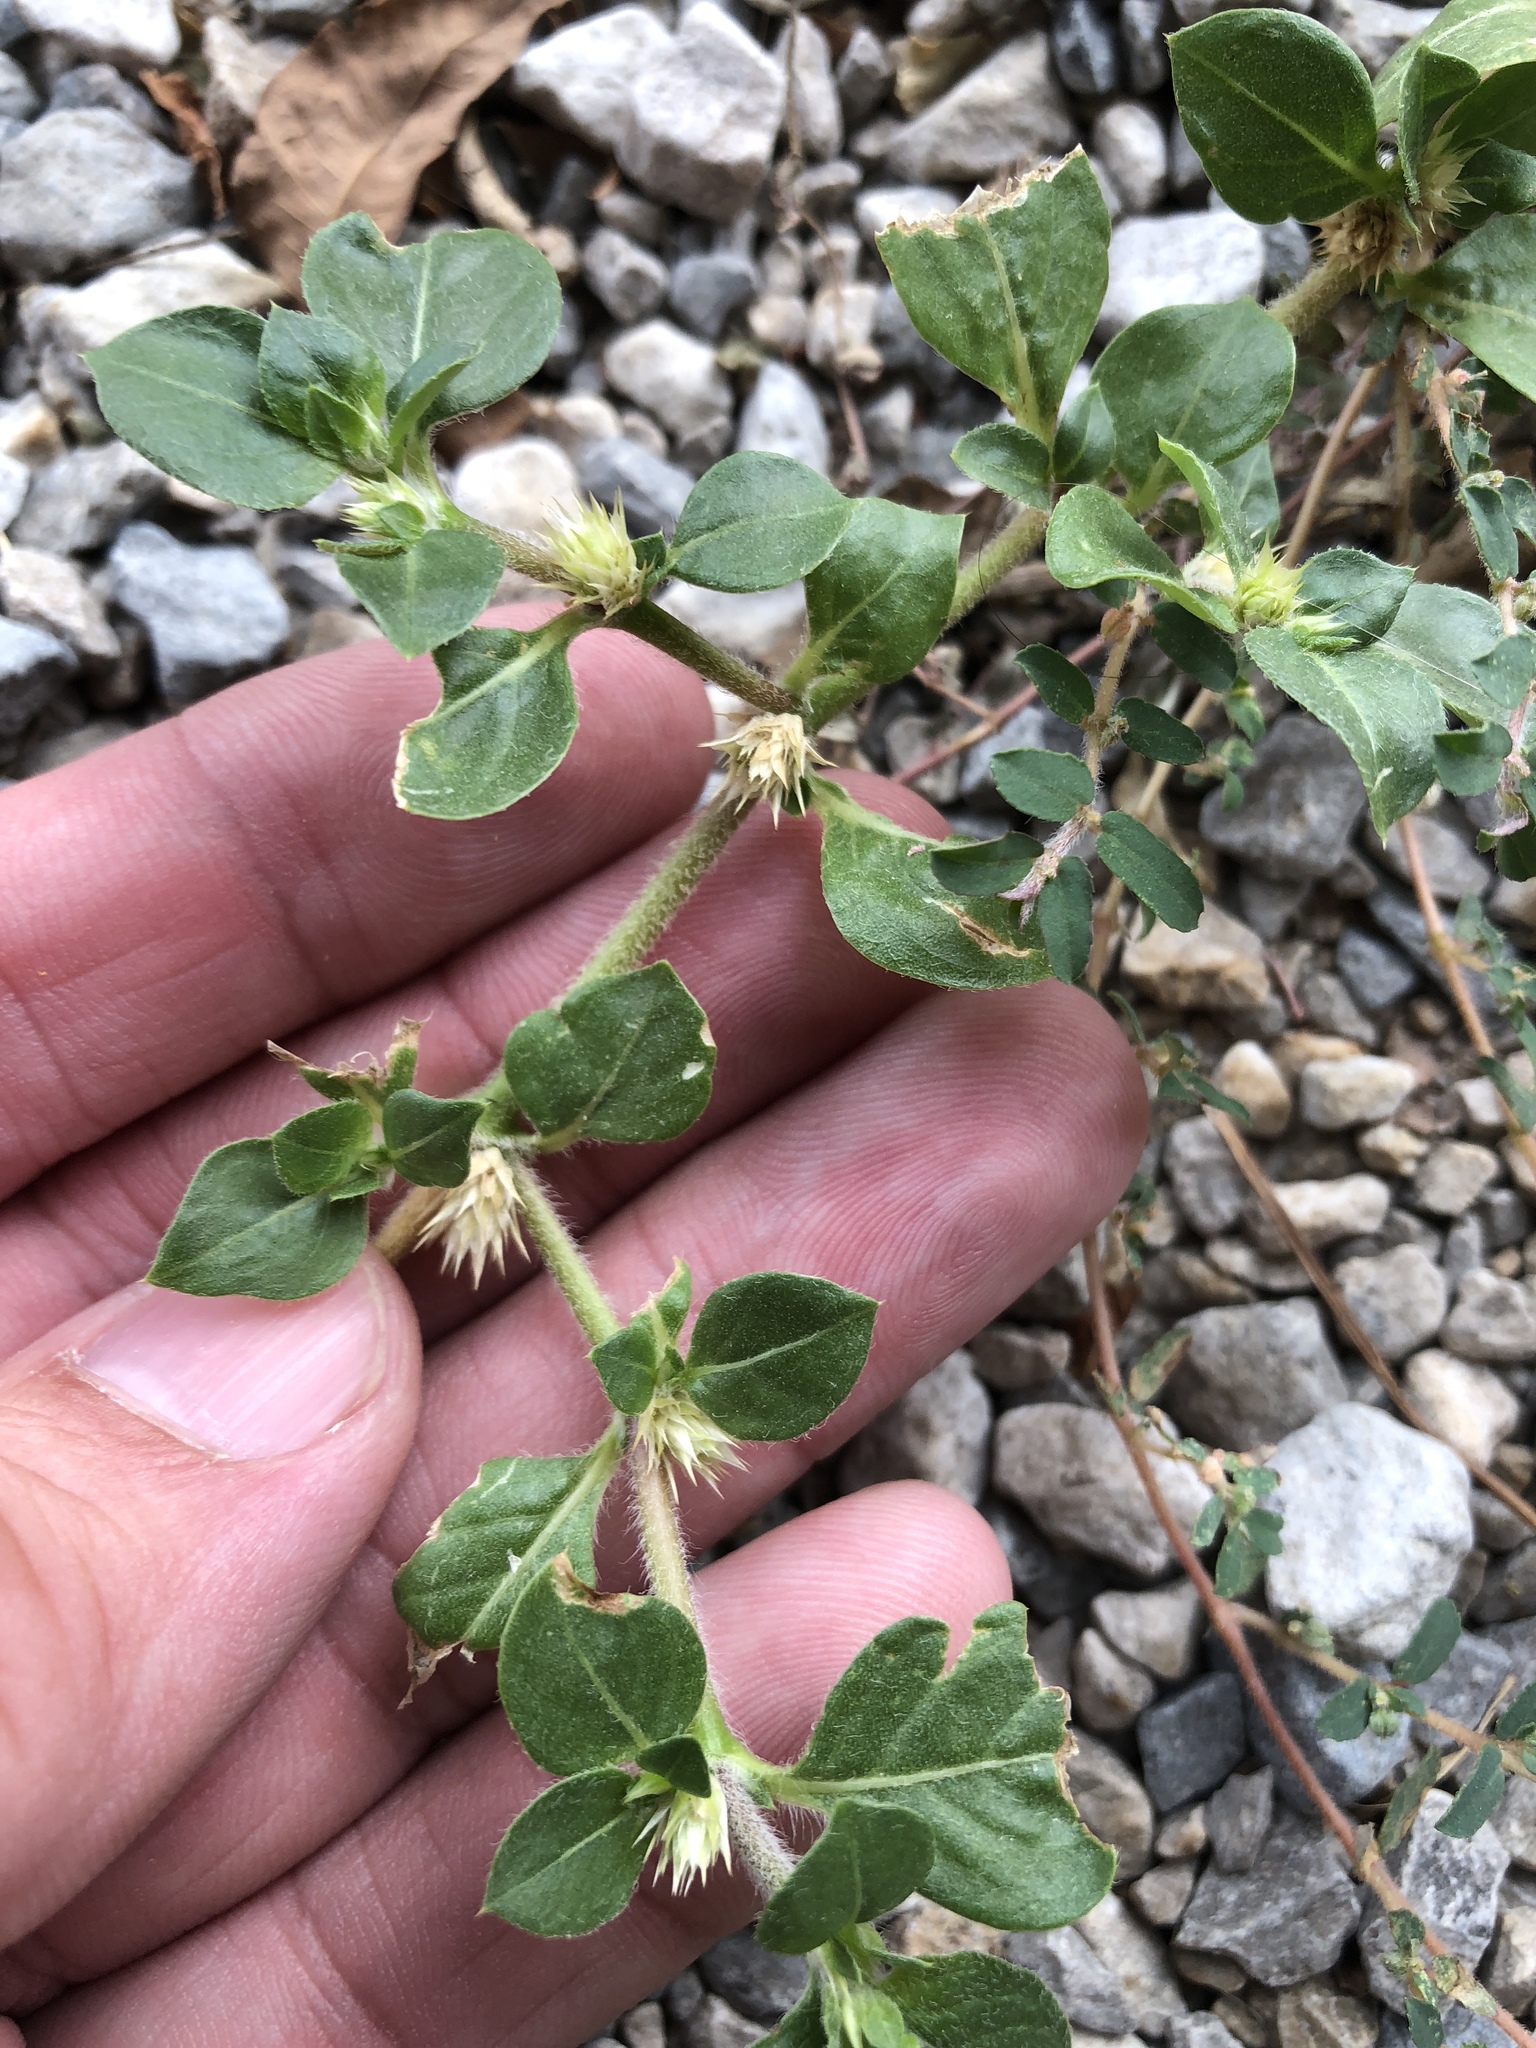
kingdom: Plantae
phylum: Tracheophyta
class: Magnoliopsida
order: Caryophyllales
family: Amaranthaceae
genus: Alternanthera
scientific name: Alternanthera pungens
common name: Khakiweed
